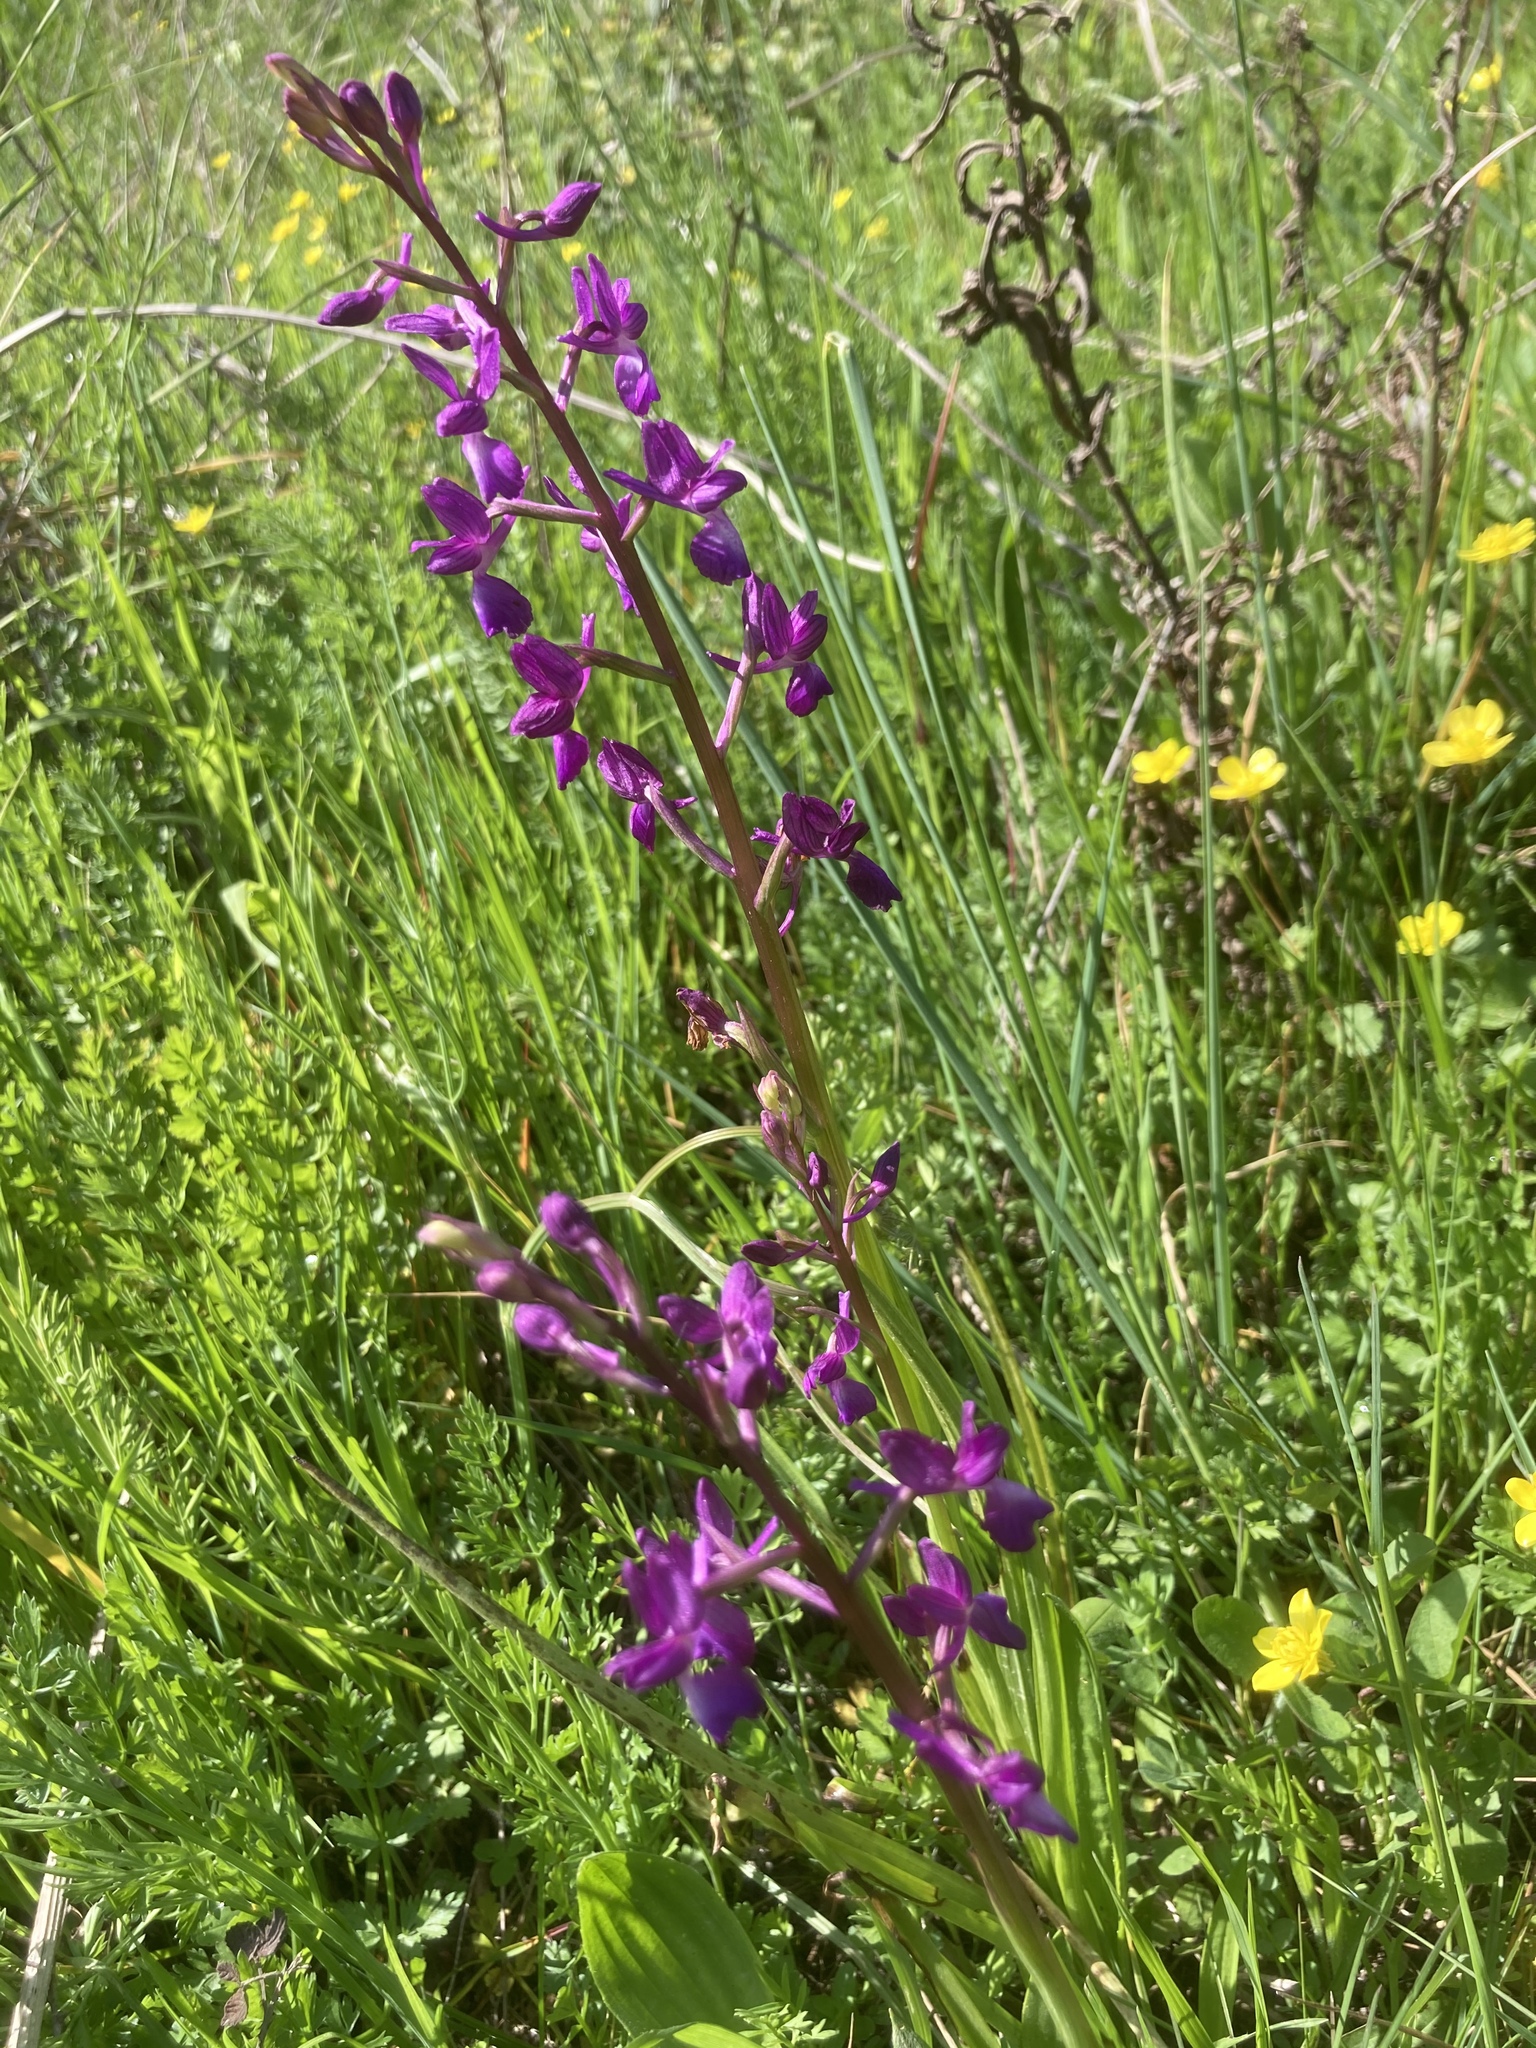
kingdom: Plantae
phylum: Tracheophyta
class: Liliopsida
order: Asparagales
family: Orchidaceae
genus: Anacamptis
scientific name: Anacamptis laxiflora
